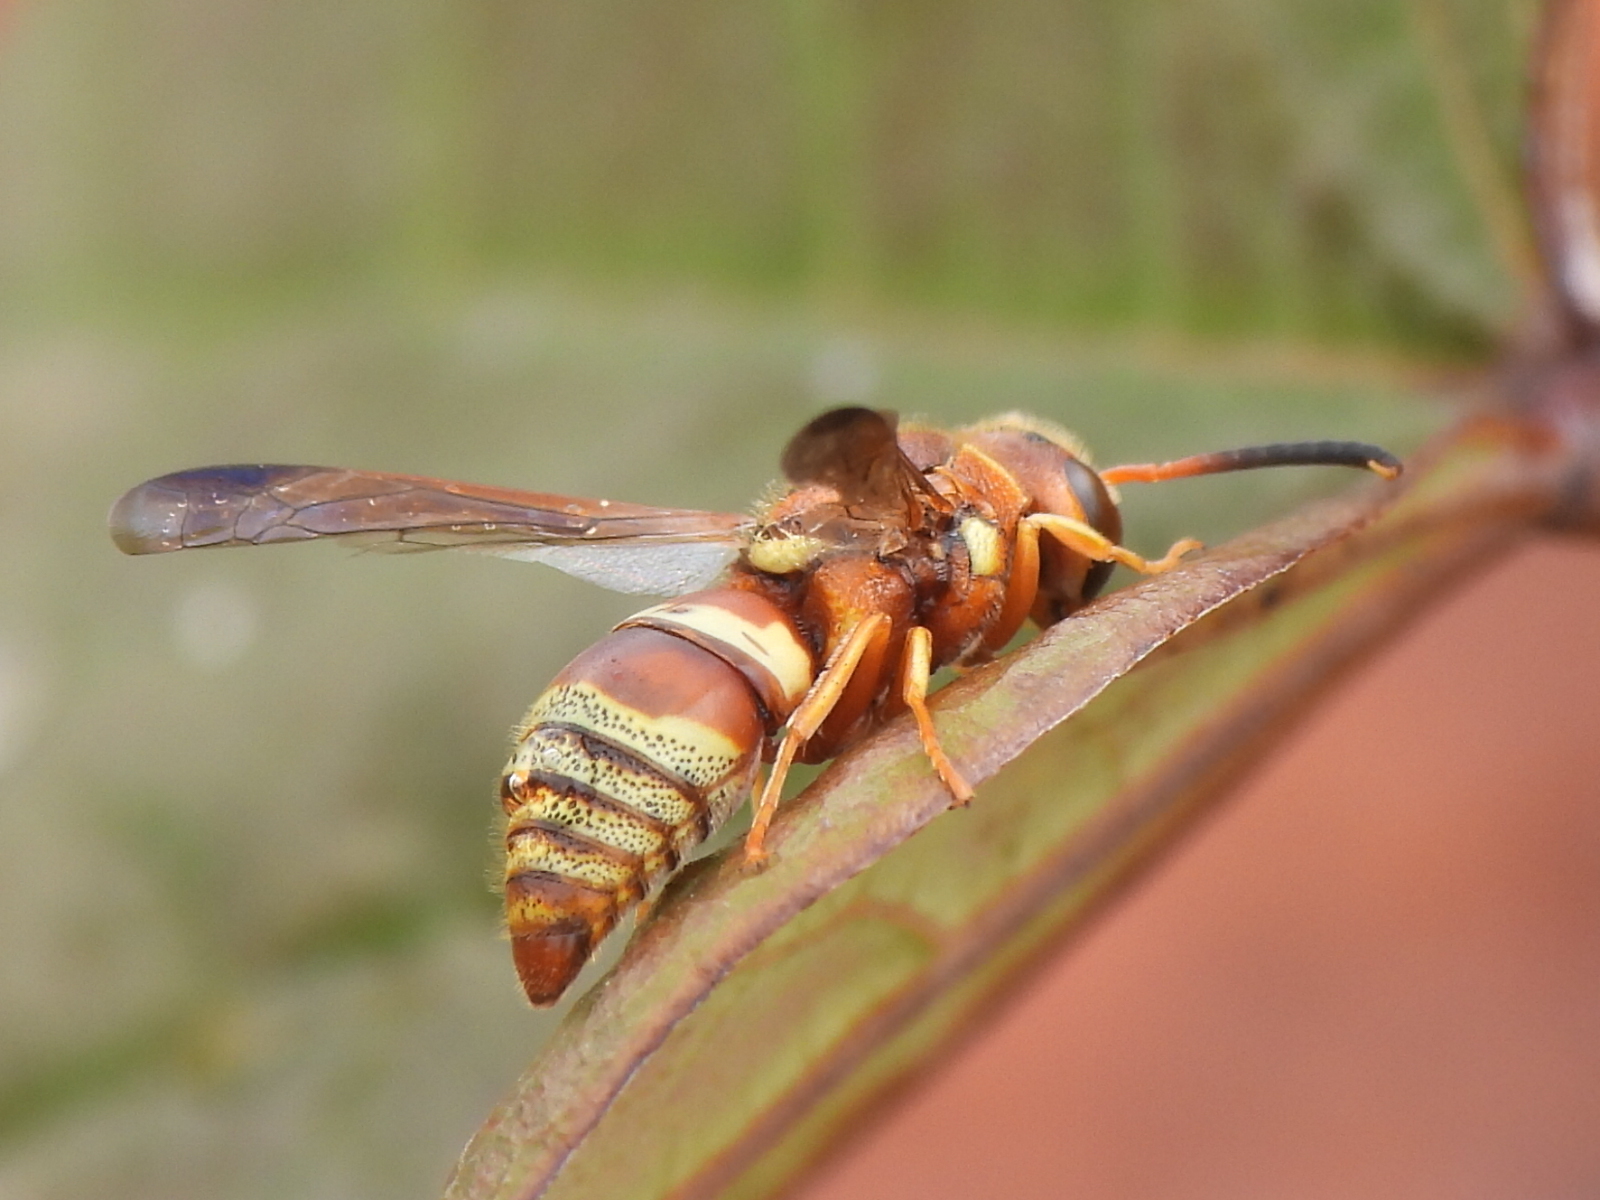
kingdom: Animalia
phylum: Arthropoda
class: Insecta
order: Hymenoptera
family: Eumenidae
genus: Euodynerus
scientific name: Euodynerus pratensis
